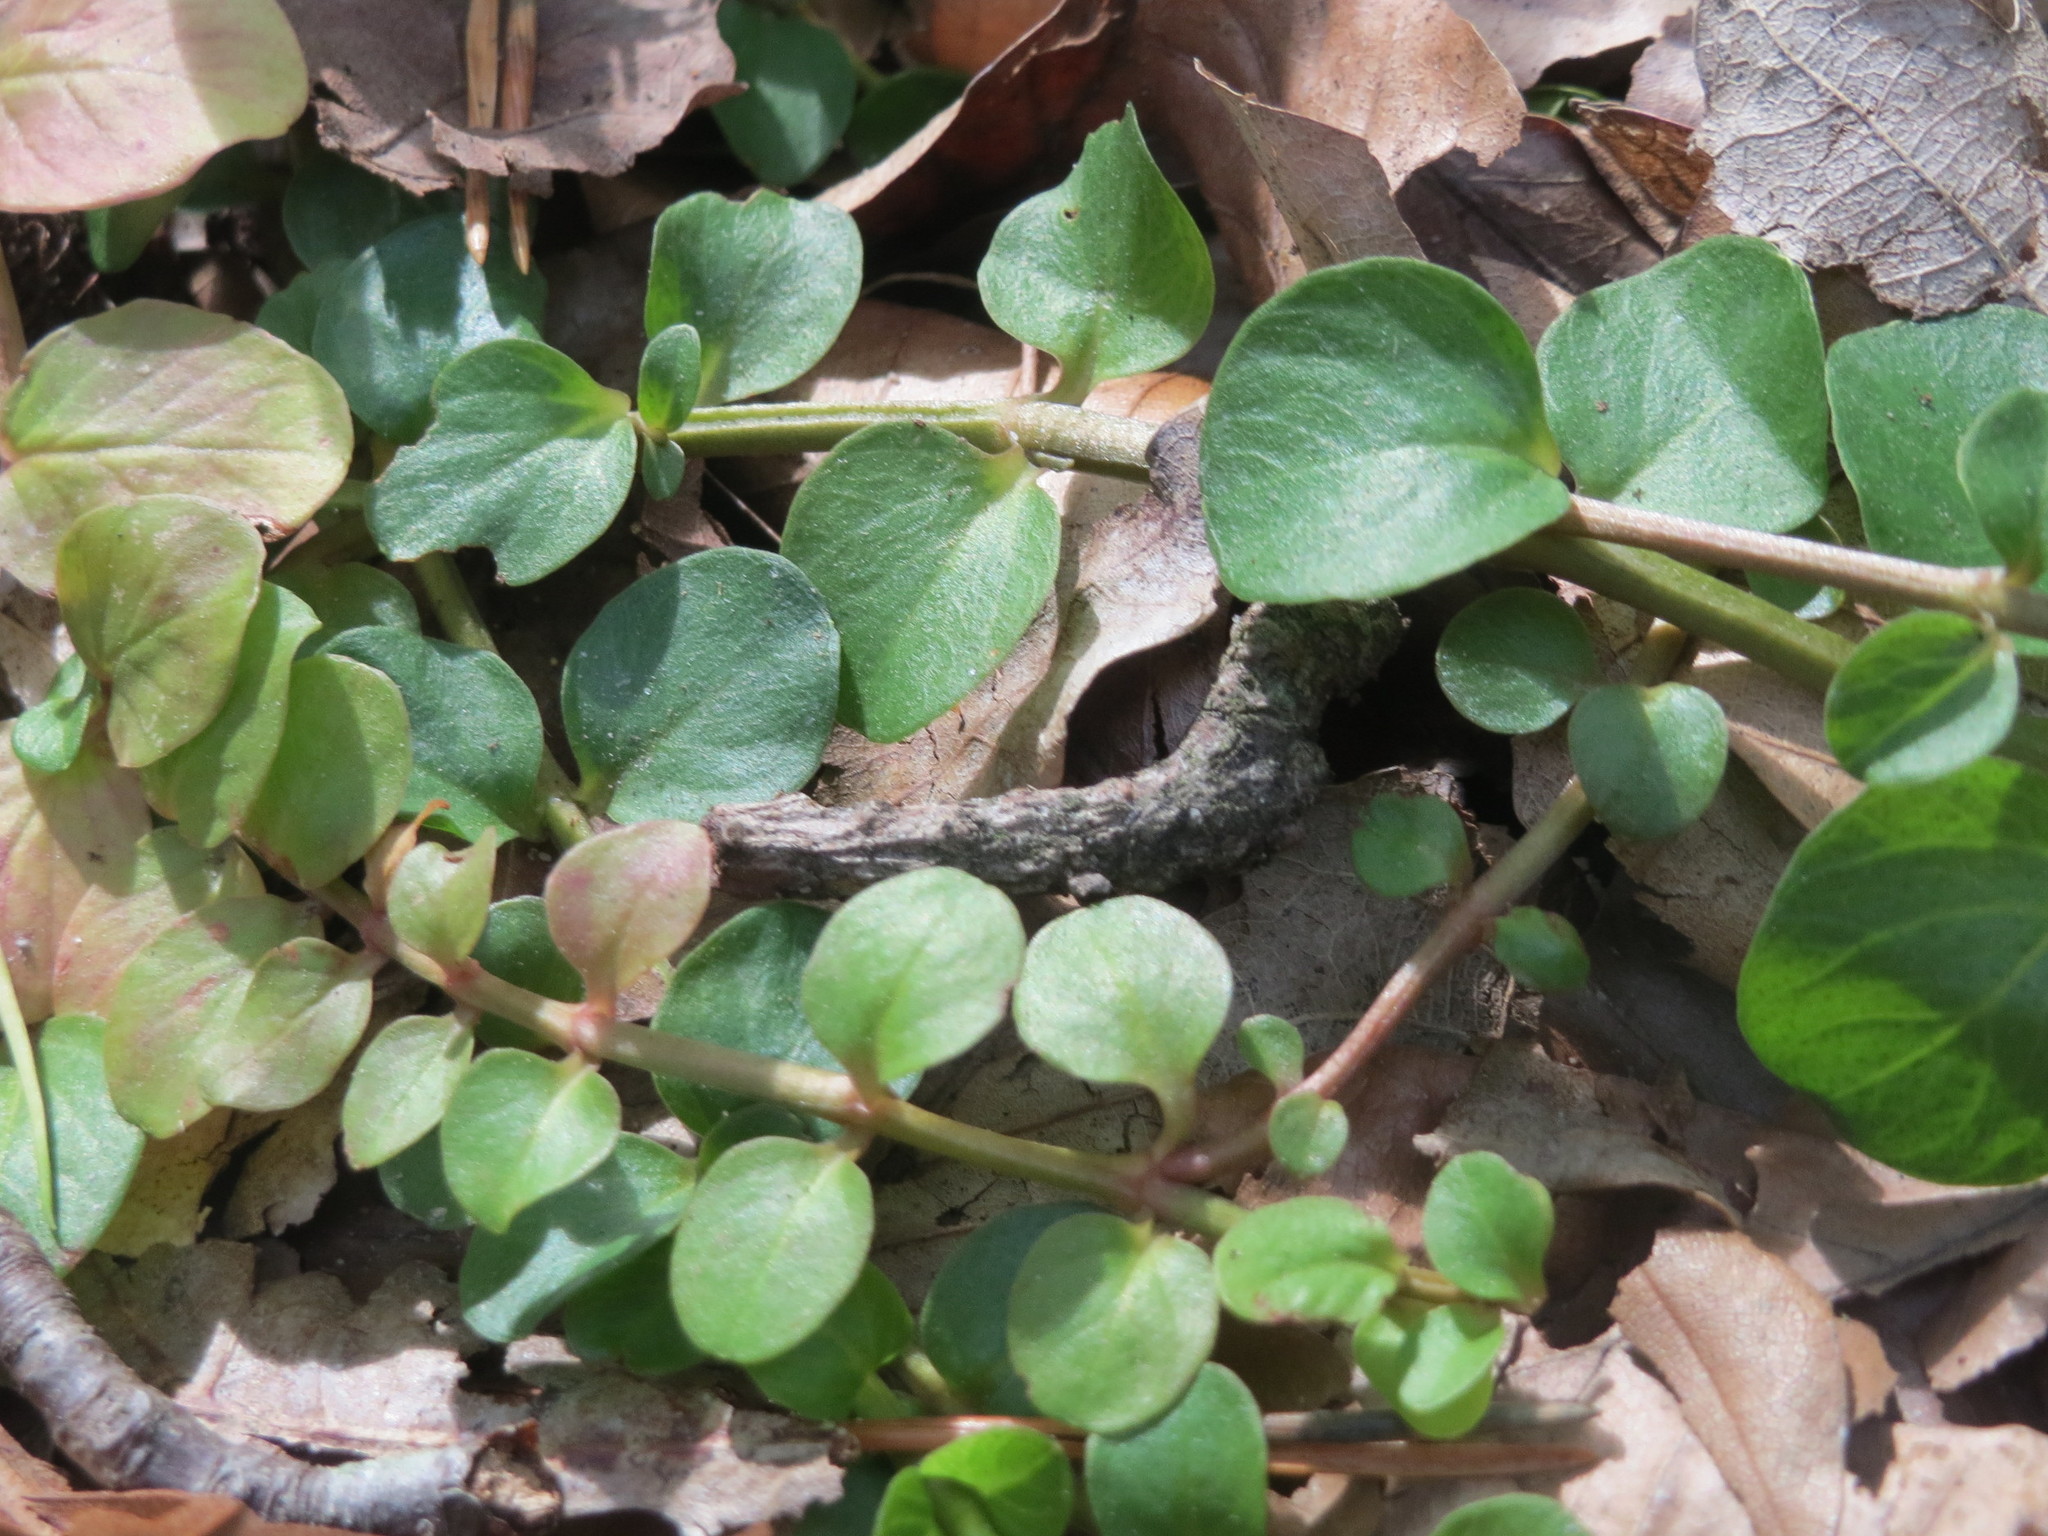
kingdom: Plantae
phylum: Tracheophyta
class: Magnoliopsida
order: Ericales
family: Primulaceae
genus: Lysimachia
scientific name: Lysimachia nummularia
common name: Moneywort
